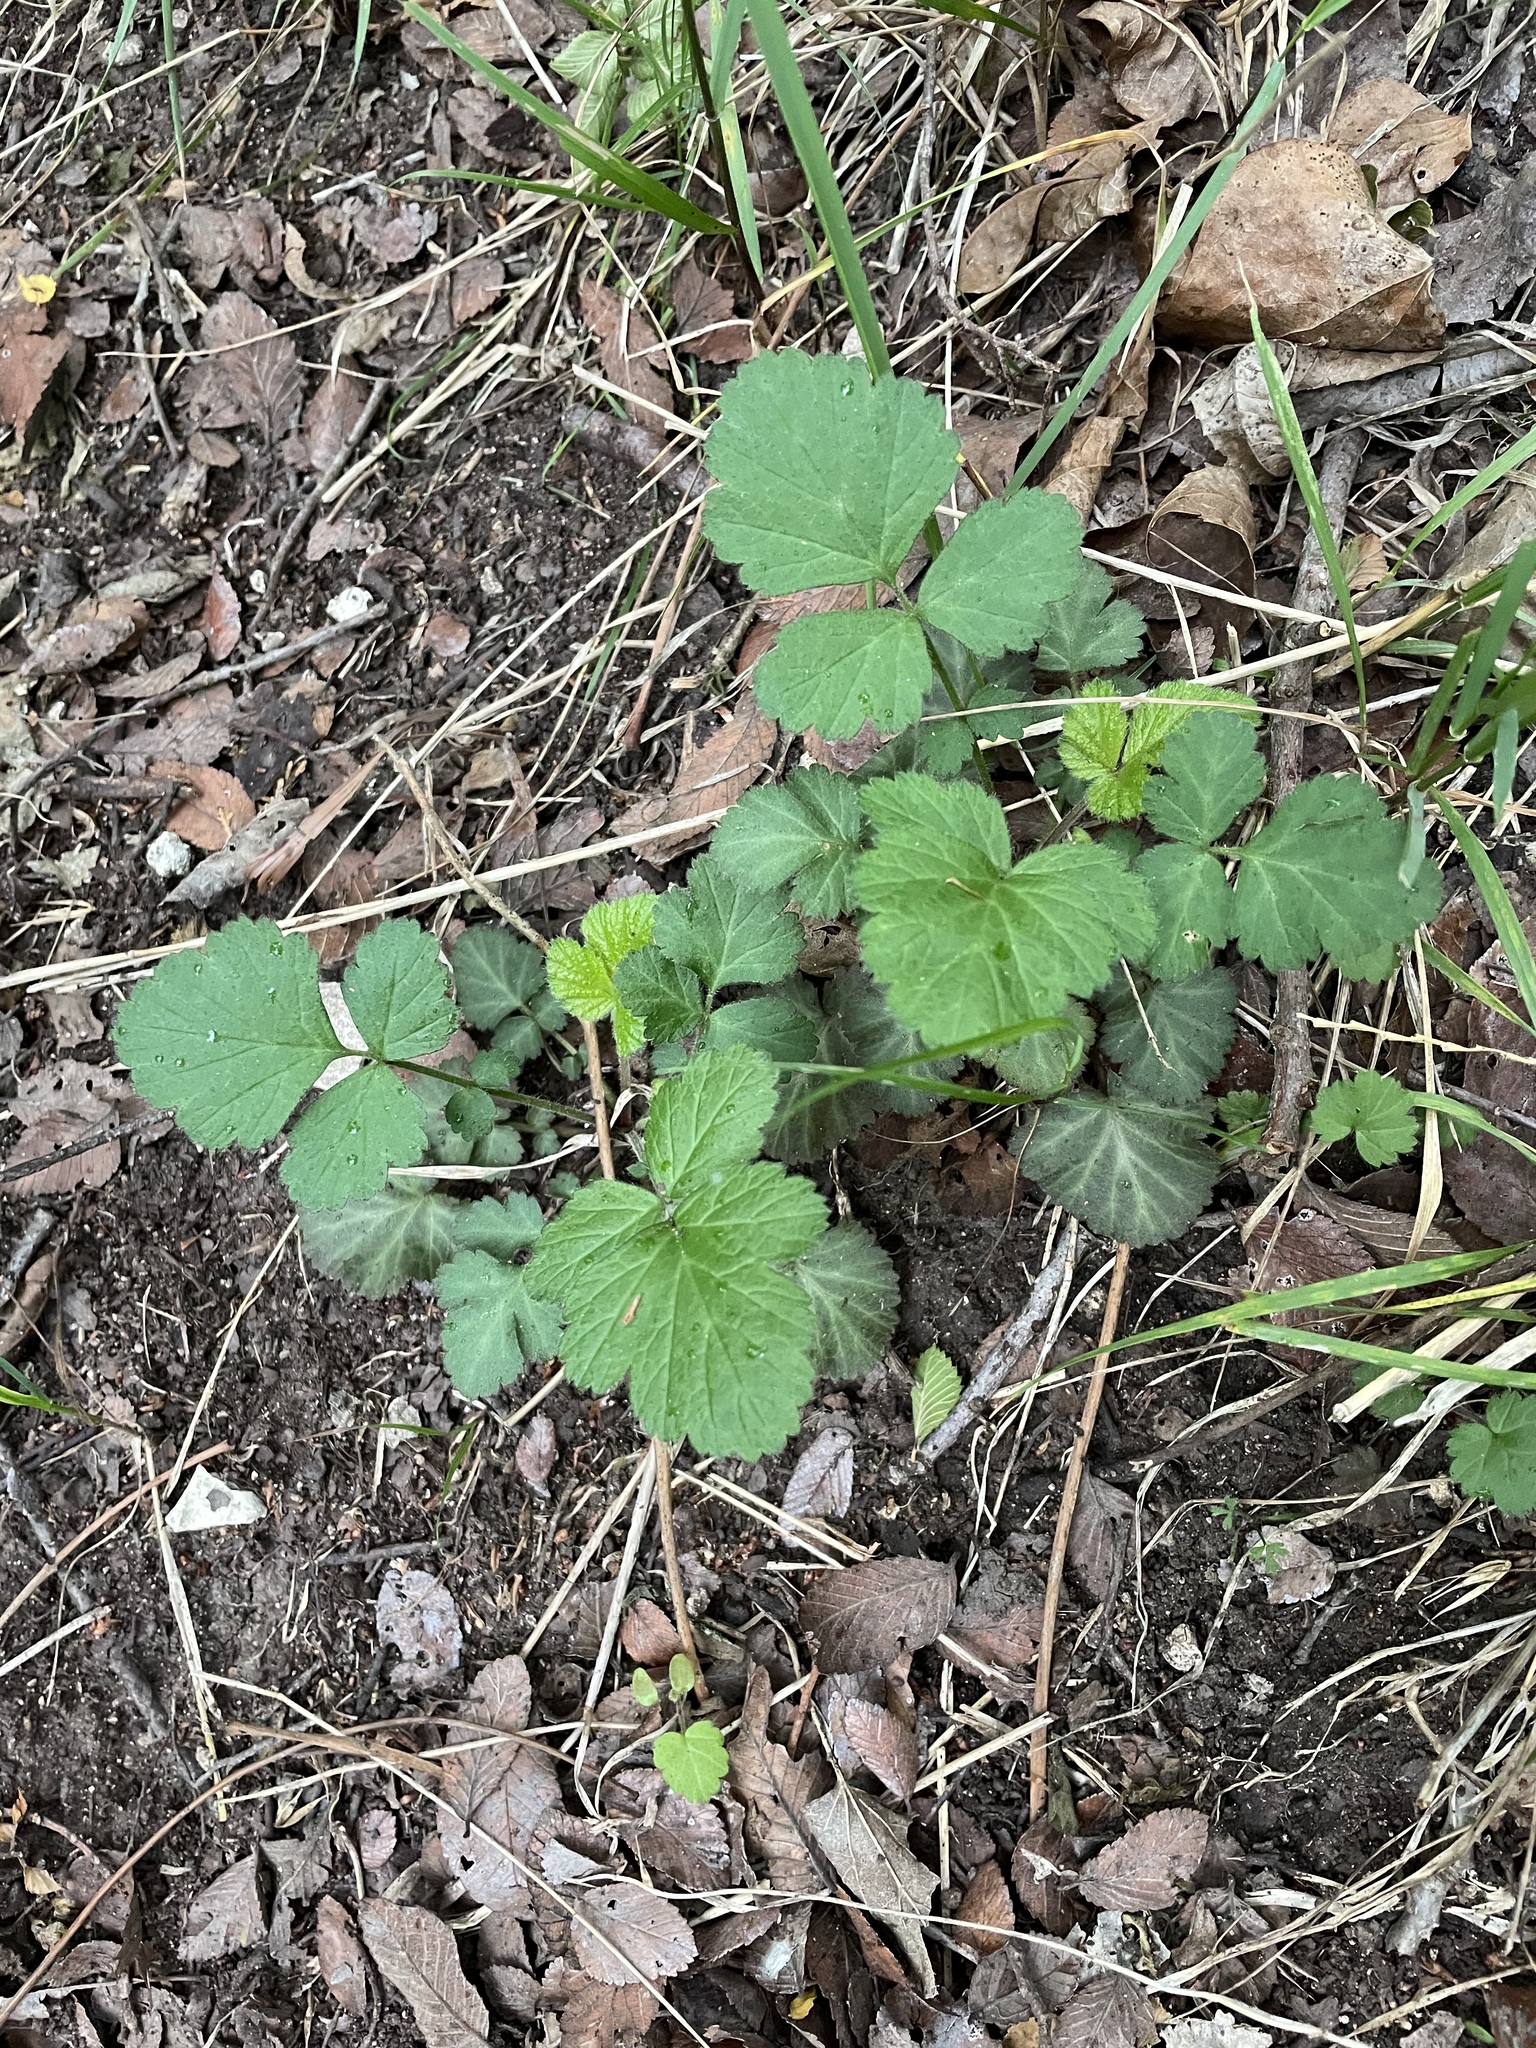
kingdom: Plantae
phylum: Tracheophyta
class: Magnoliopsida
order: Rosales
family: Rosaceae
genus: Geum
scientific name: Geum canadense
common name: White avens
